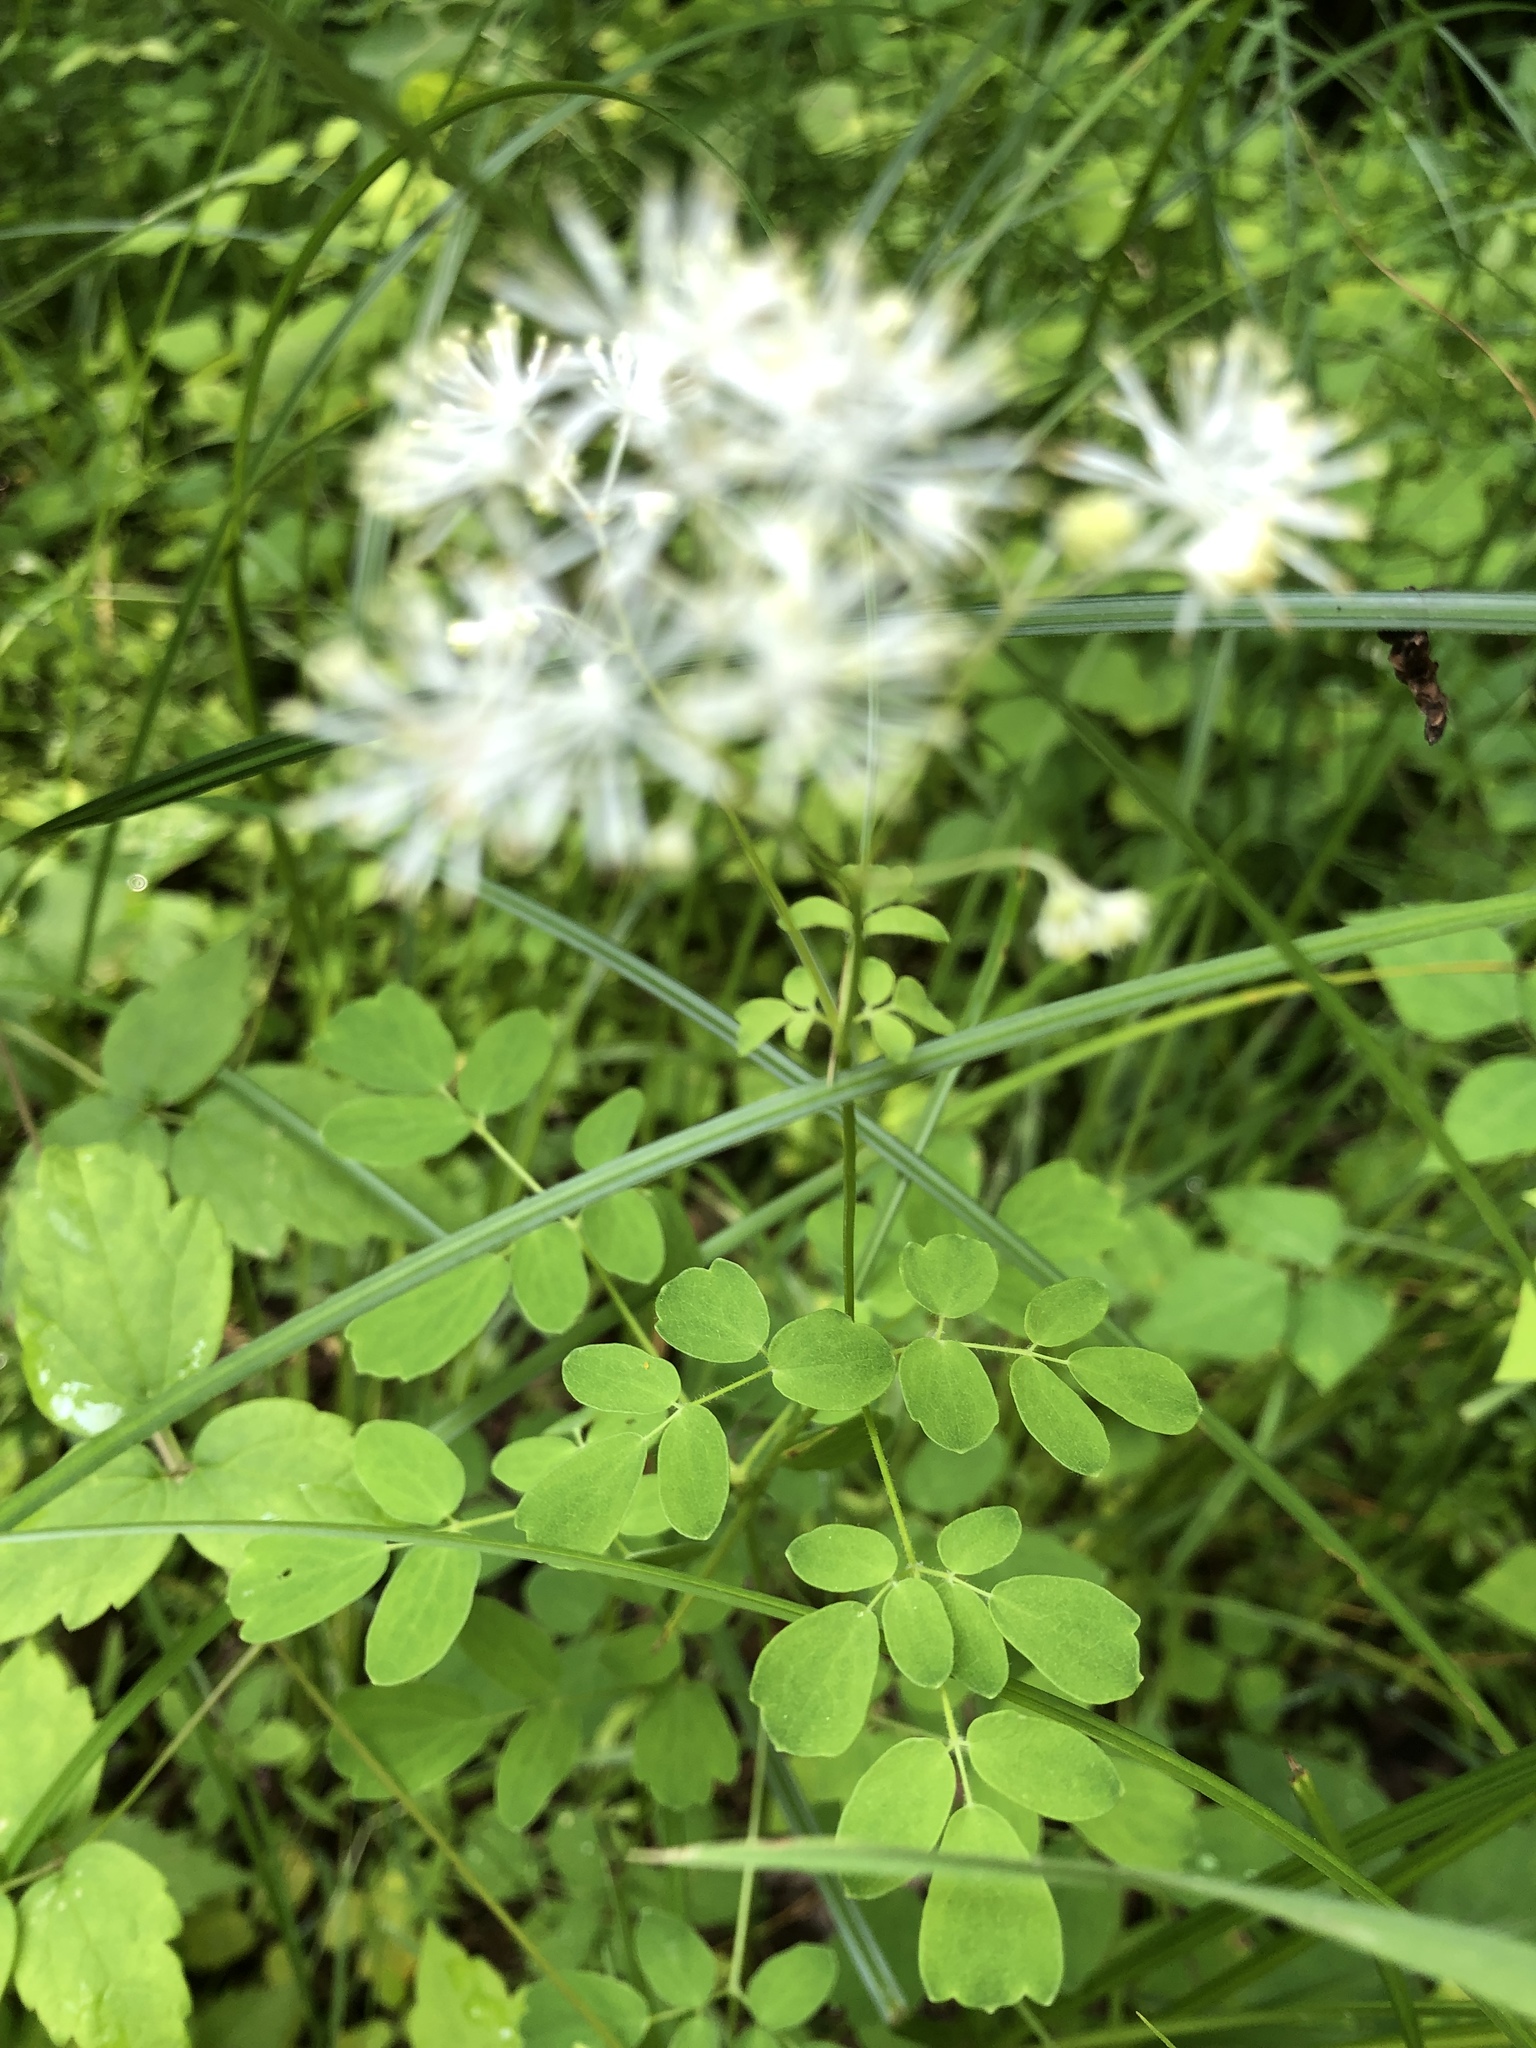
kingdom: Plantae
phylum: Tracheophyta
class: Magnoliopsida
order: Ranunculales
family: Ranunculaceae
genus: Thalictrum
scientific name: Thalictrum pubescens
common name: King-of-the-meadow
